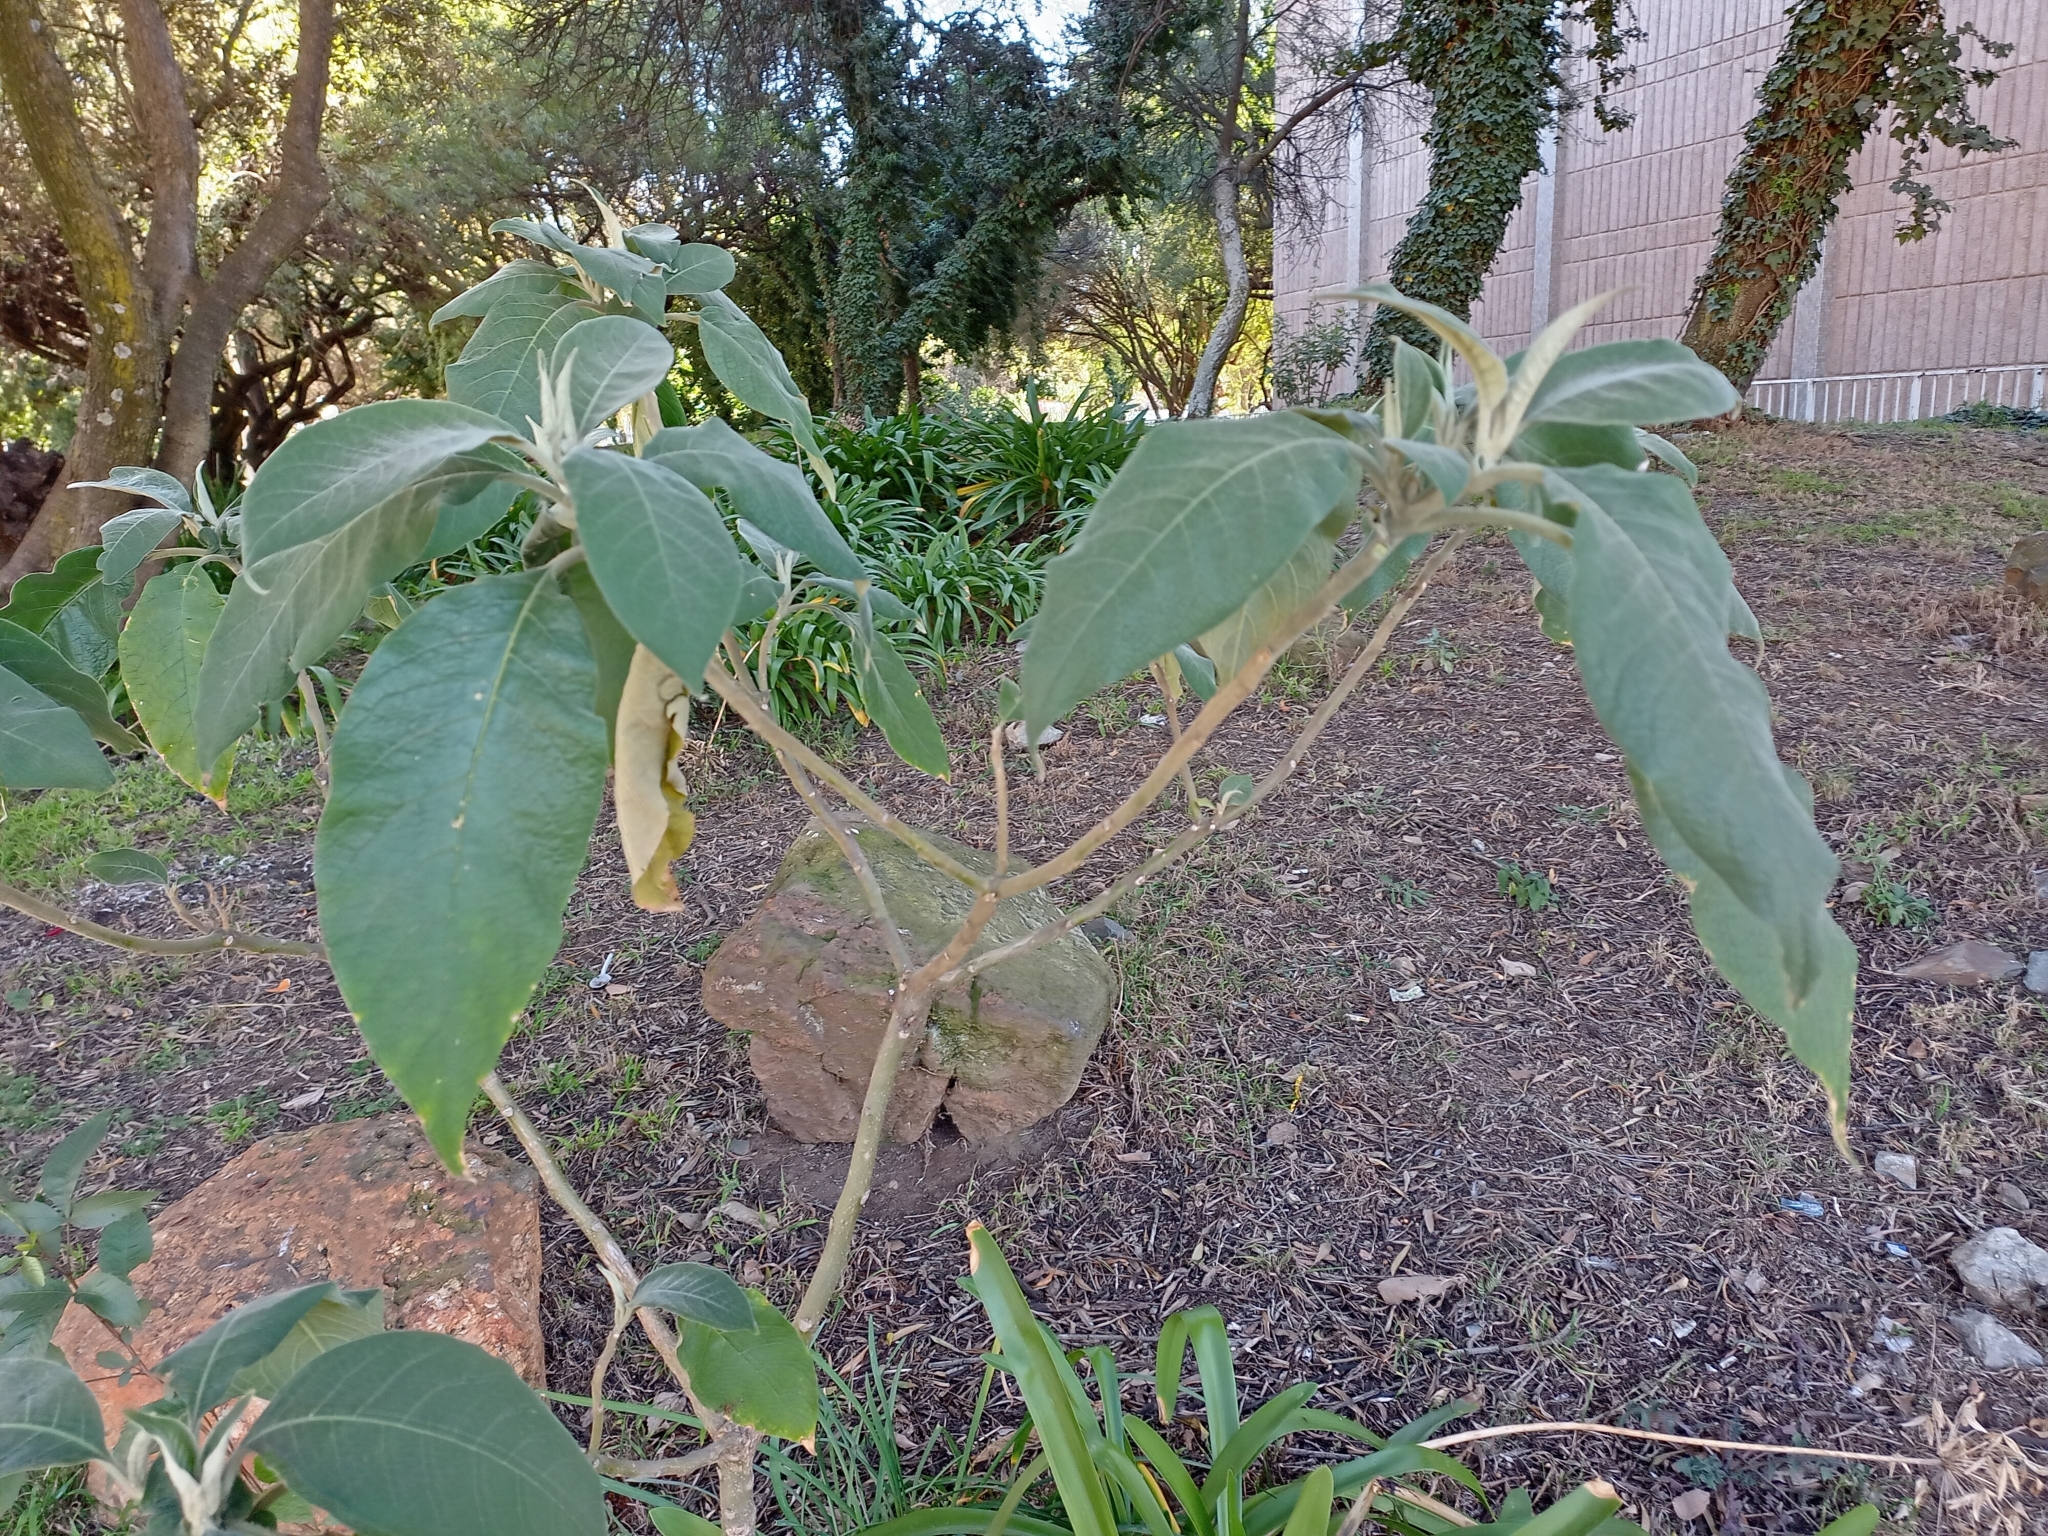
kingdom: Plantae
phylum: Tracheophyta
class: Magnoliopsida
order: Solanales
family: Solanaceae
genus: Solanum
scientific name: Solanum mauritianum
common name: Earleaf nightshade
